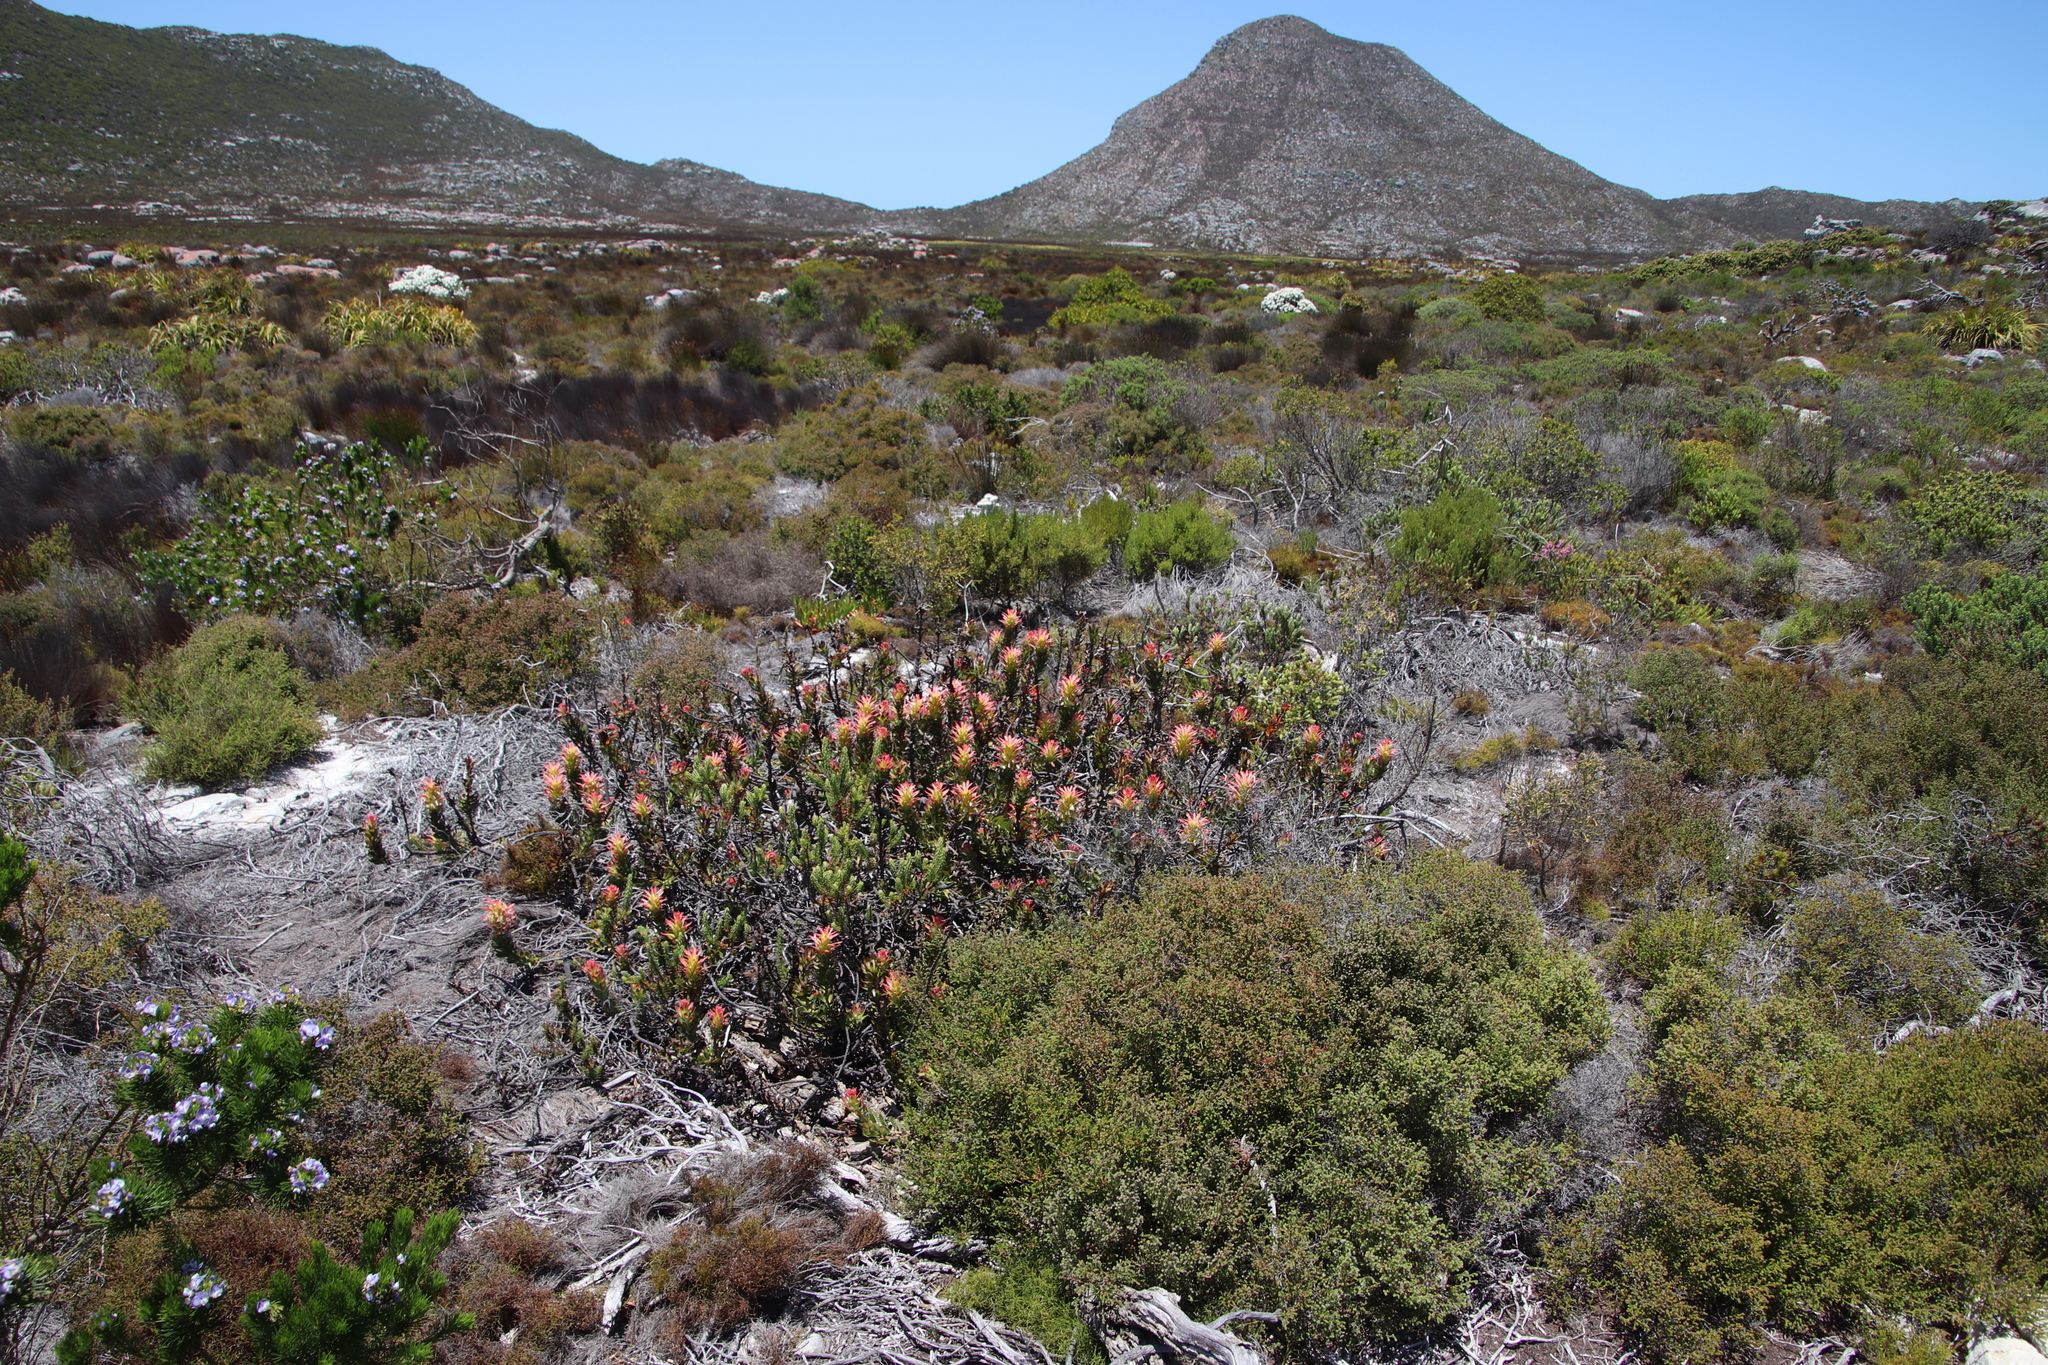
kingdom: Plantae
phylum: Tracheophyta
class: Magnoliopsida
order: Proteales
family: Proteaceae
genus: Mimetes
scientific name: Mimetes cucullatus
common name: Common pagoda
